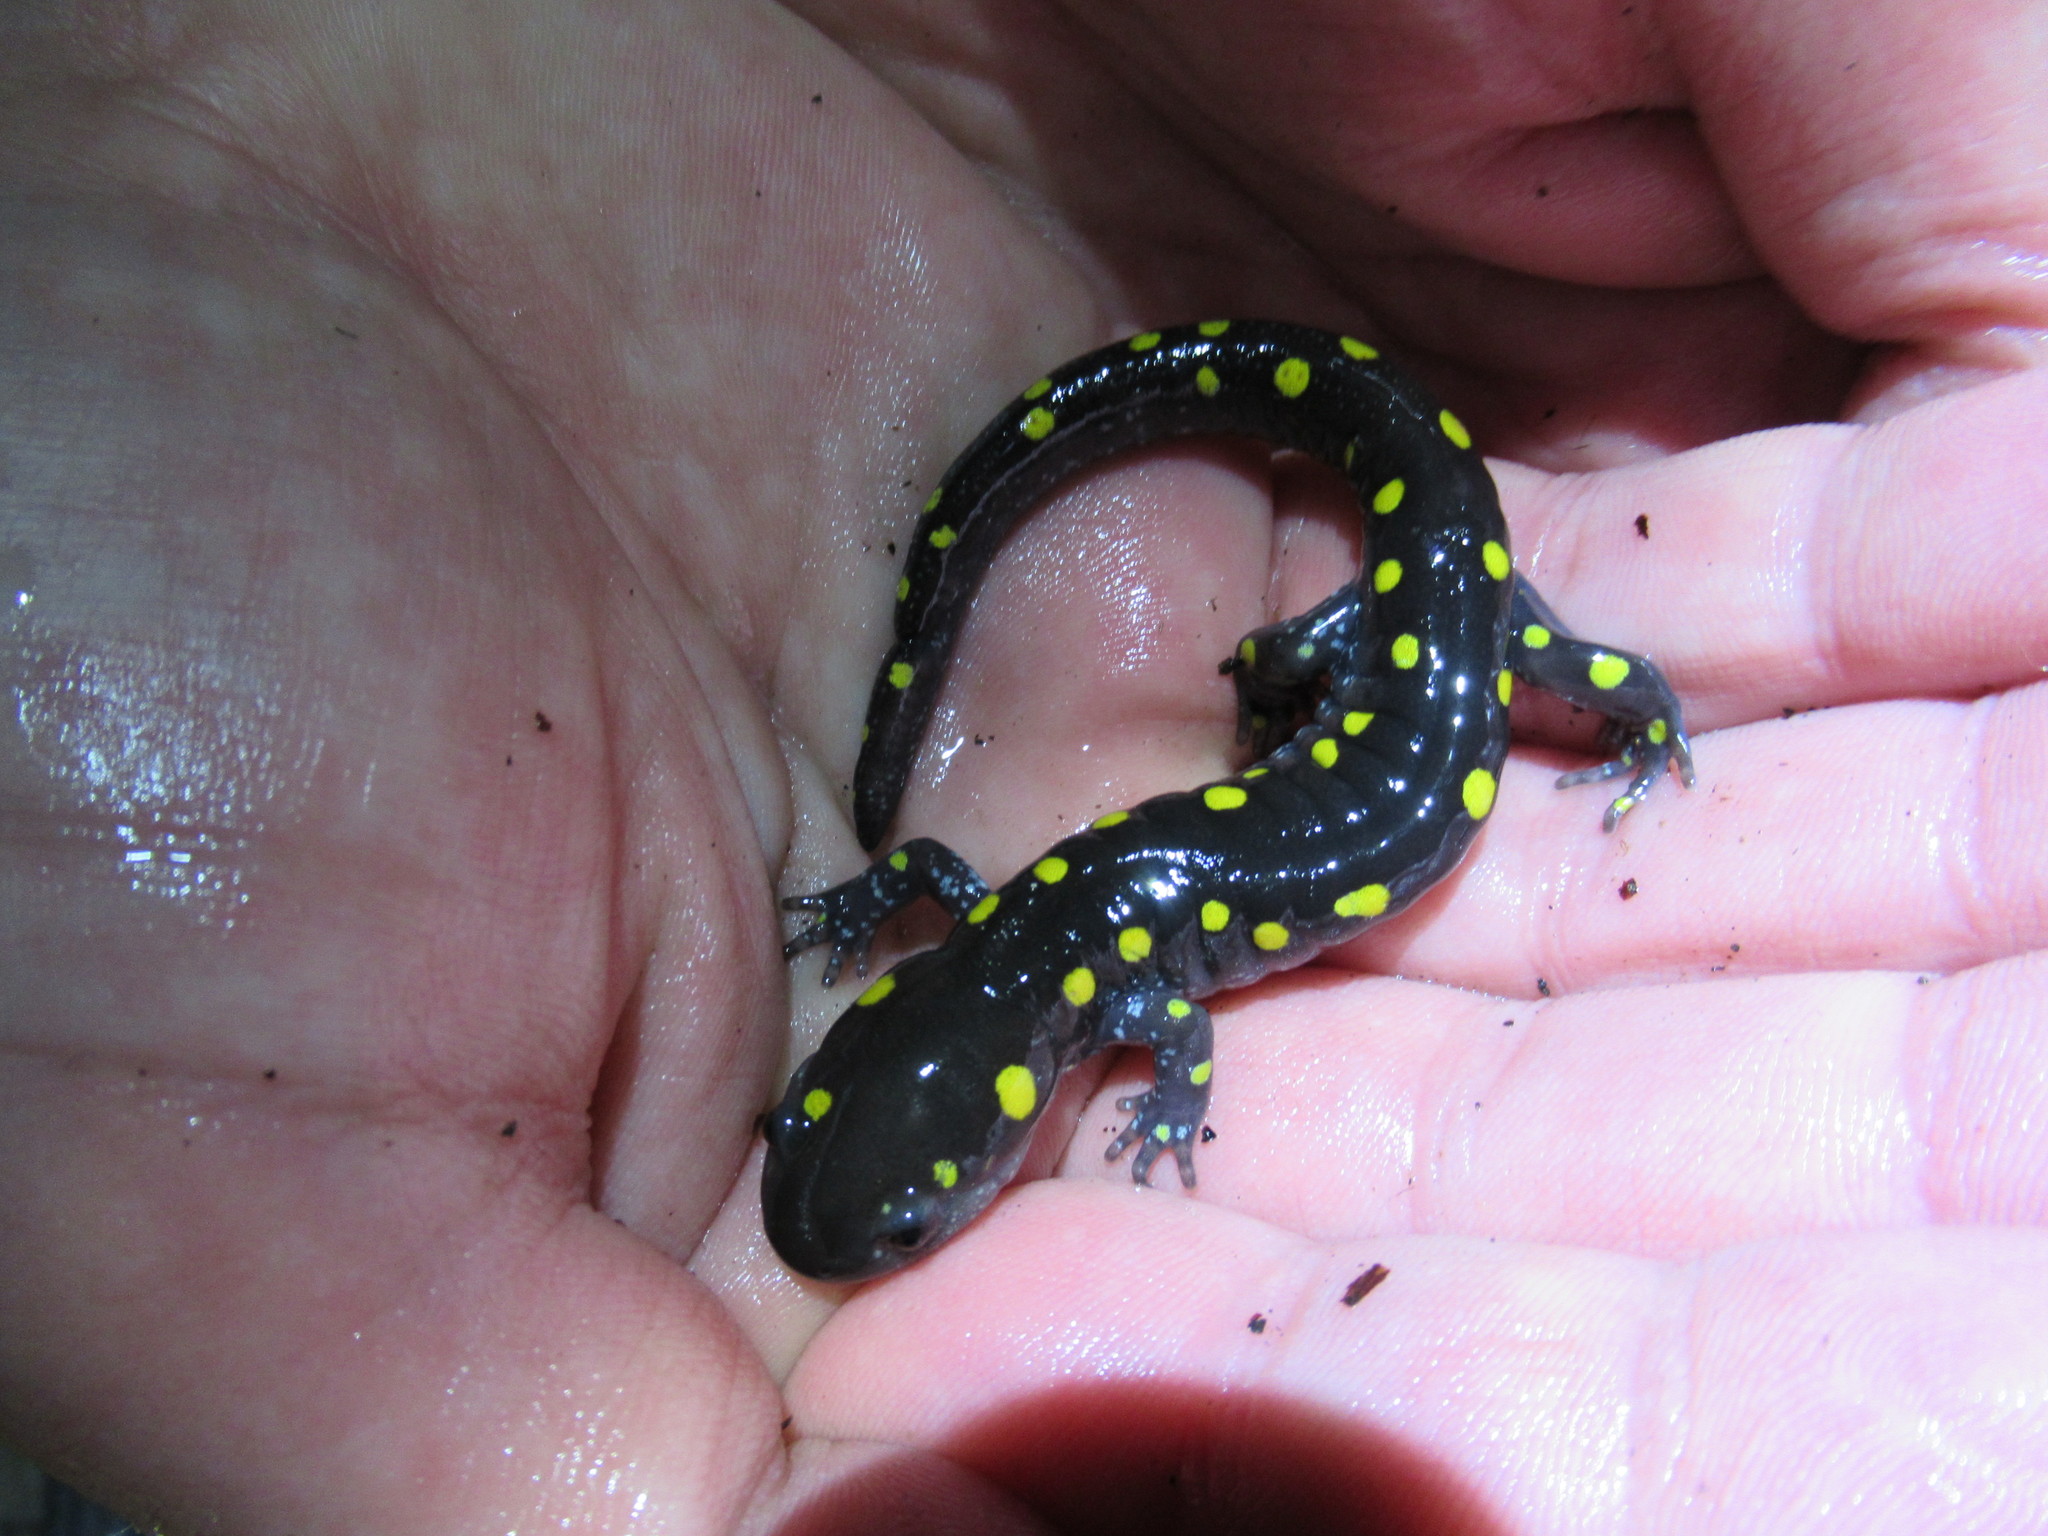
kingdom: Animalia
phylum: Chordata
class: Amphibia
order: Caudata
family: Ambystomatidae
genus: Ambystoma
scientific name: Ambystoma maculatum
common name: Spotted salamander
